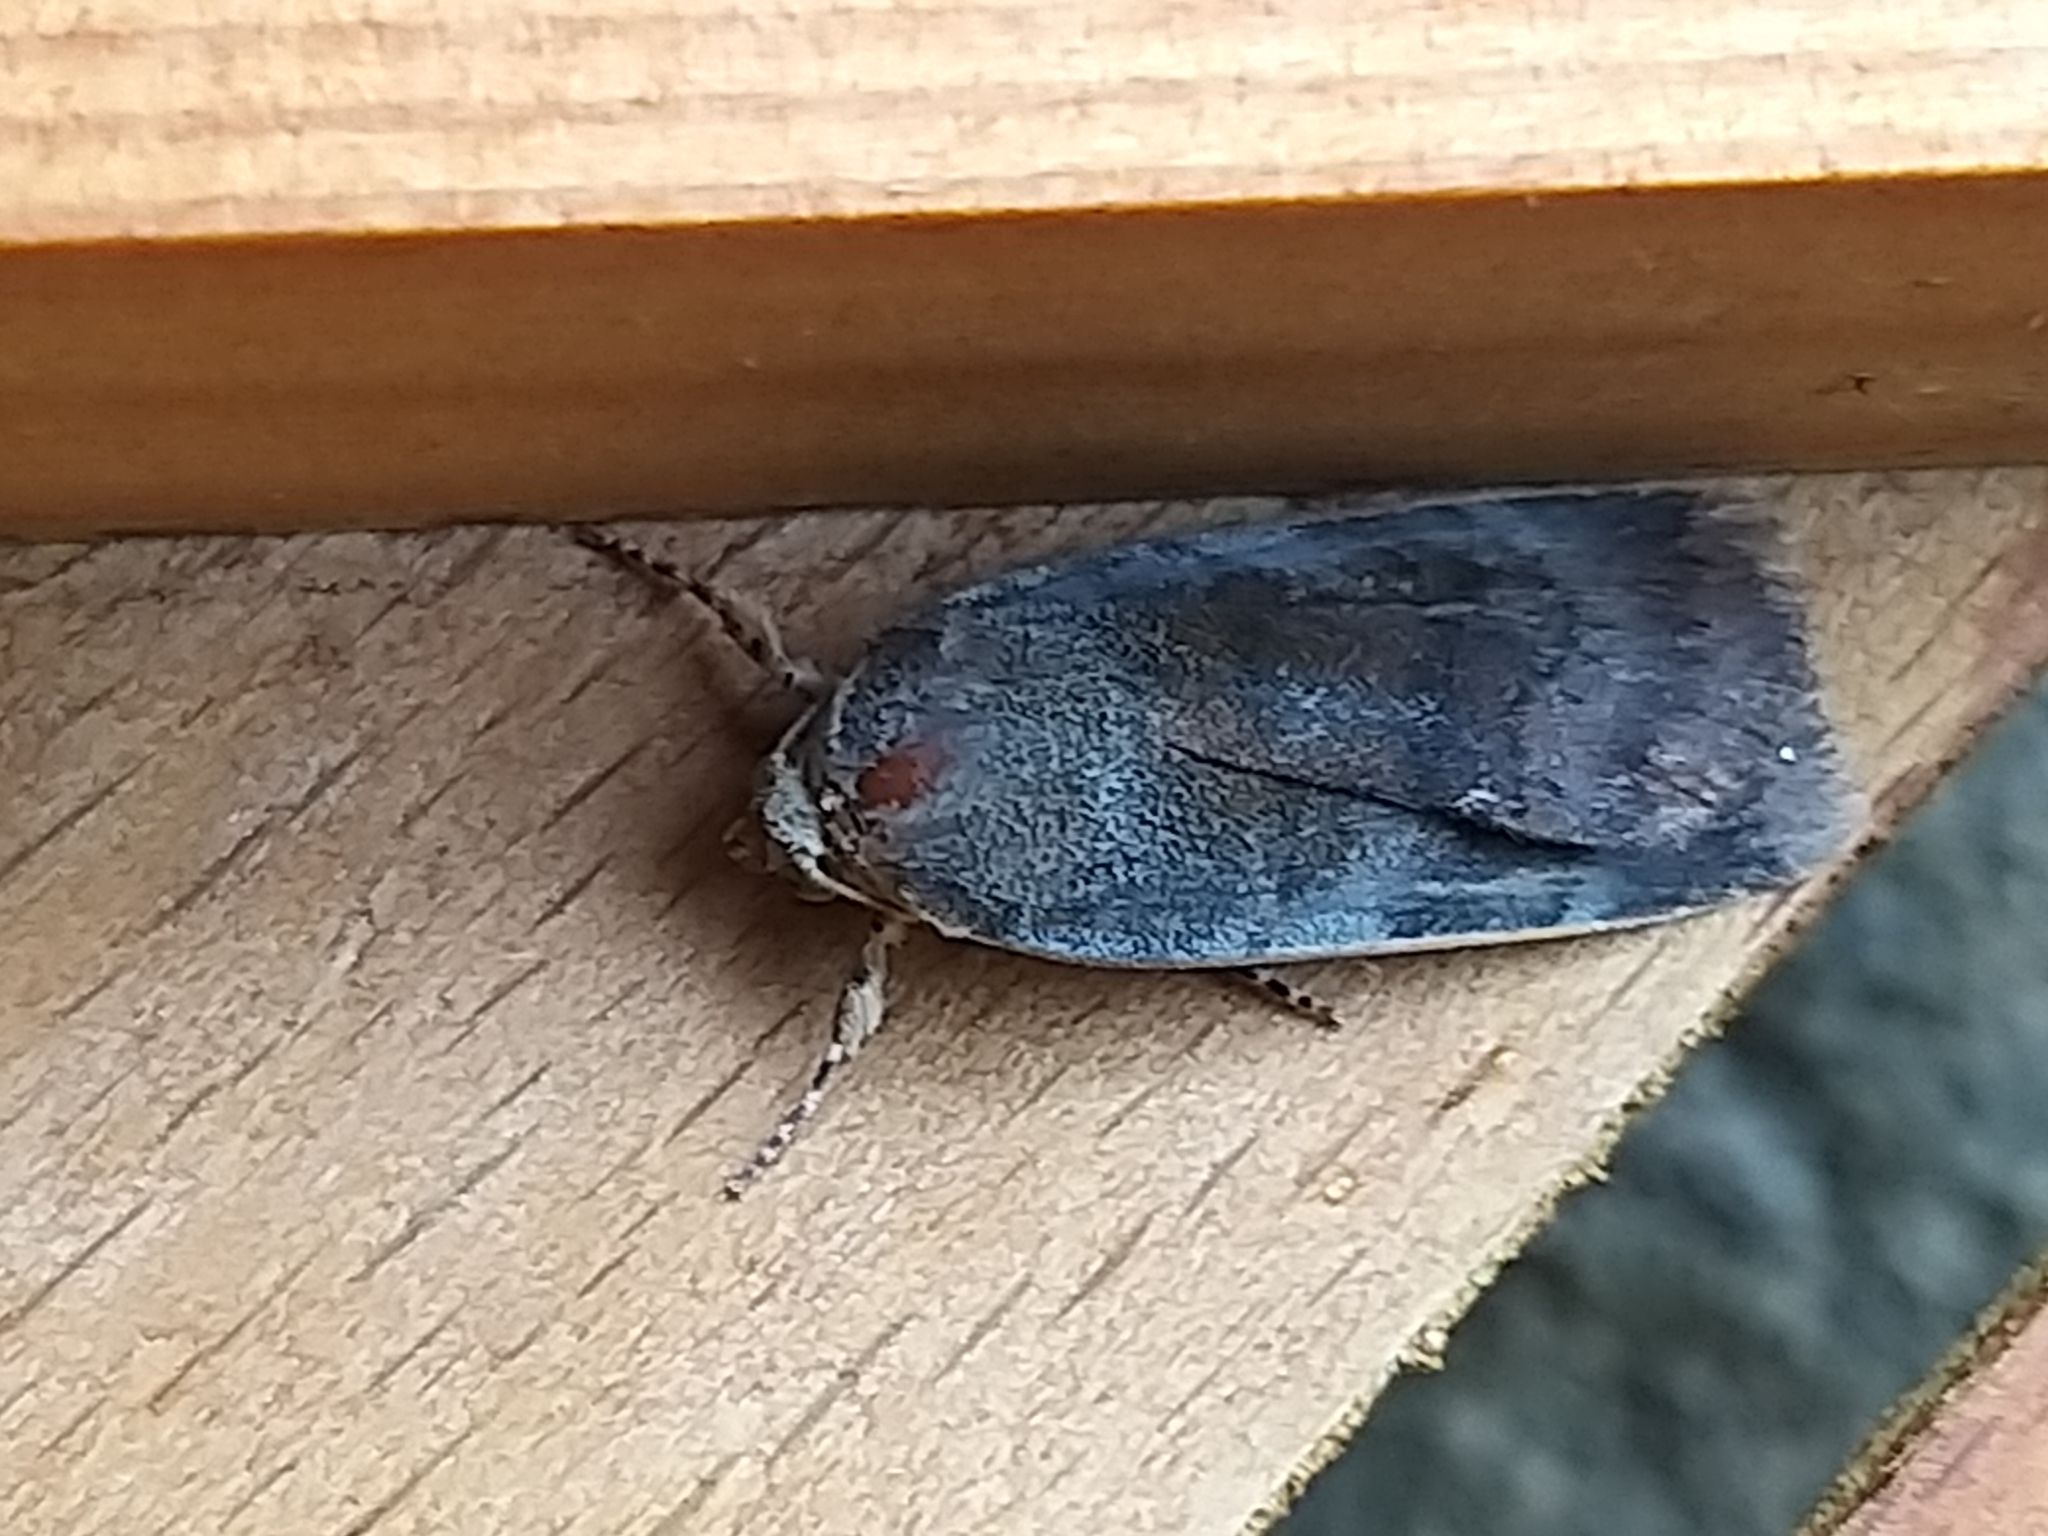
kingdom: Animalia
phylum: Arthropoda
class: Insecta
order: Lepidoptera
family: Noctuidae
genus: Noctua
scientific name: Noctua janthe
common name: Lesser broad-bordered yellow underwing
